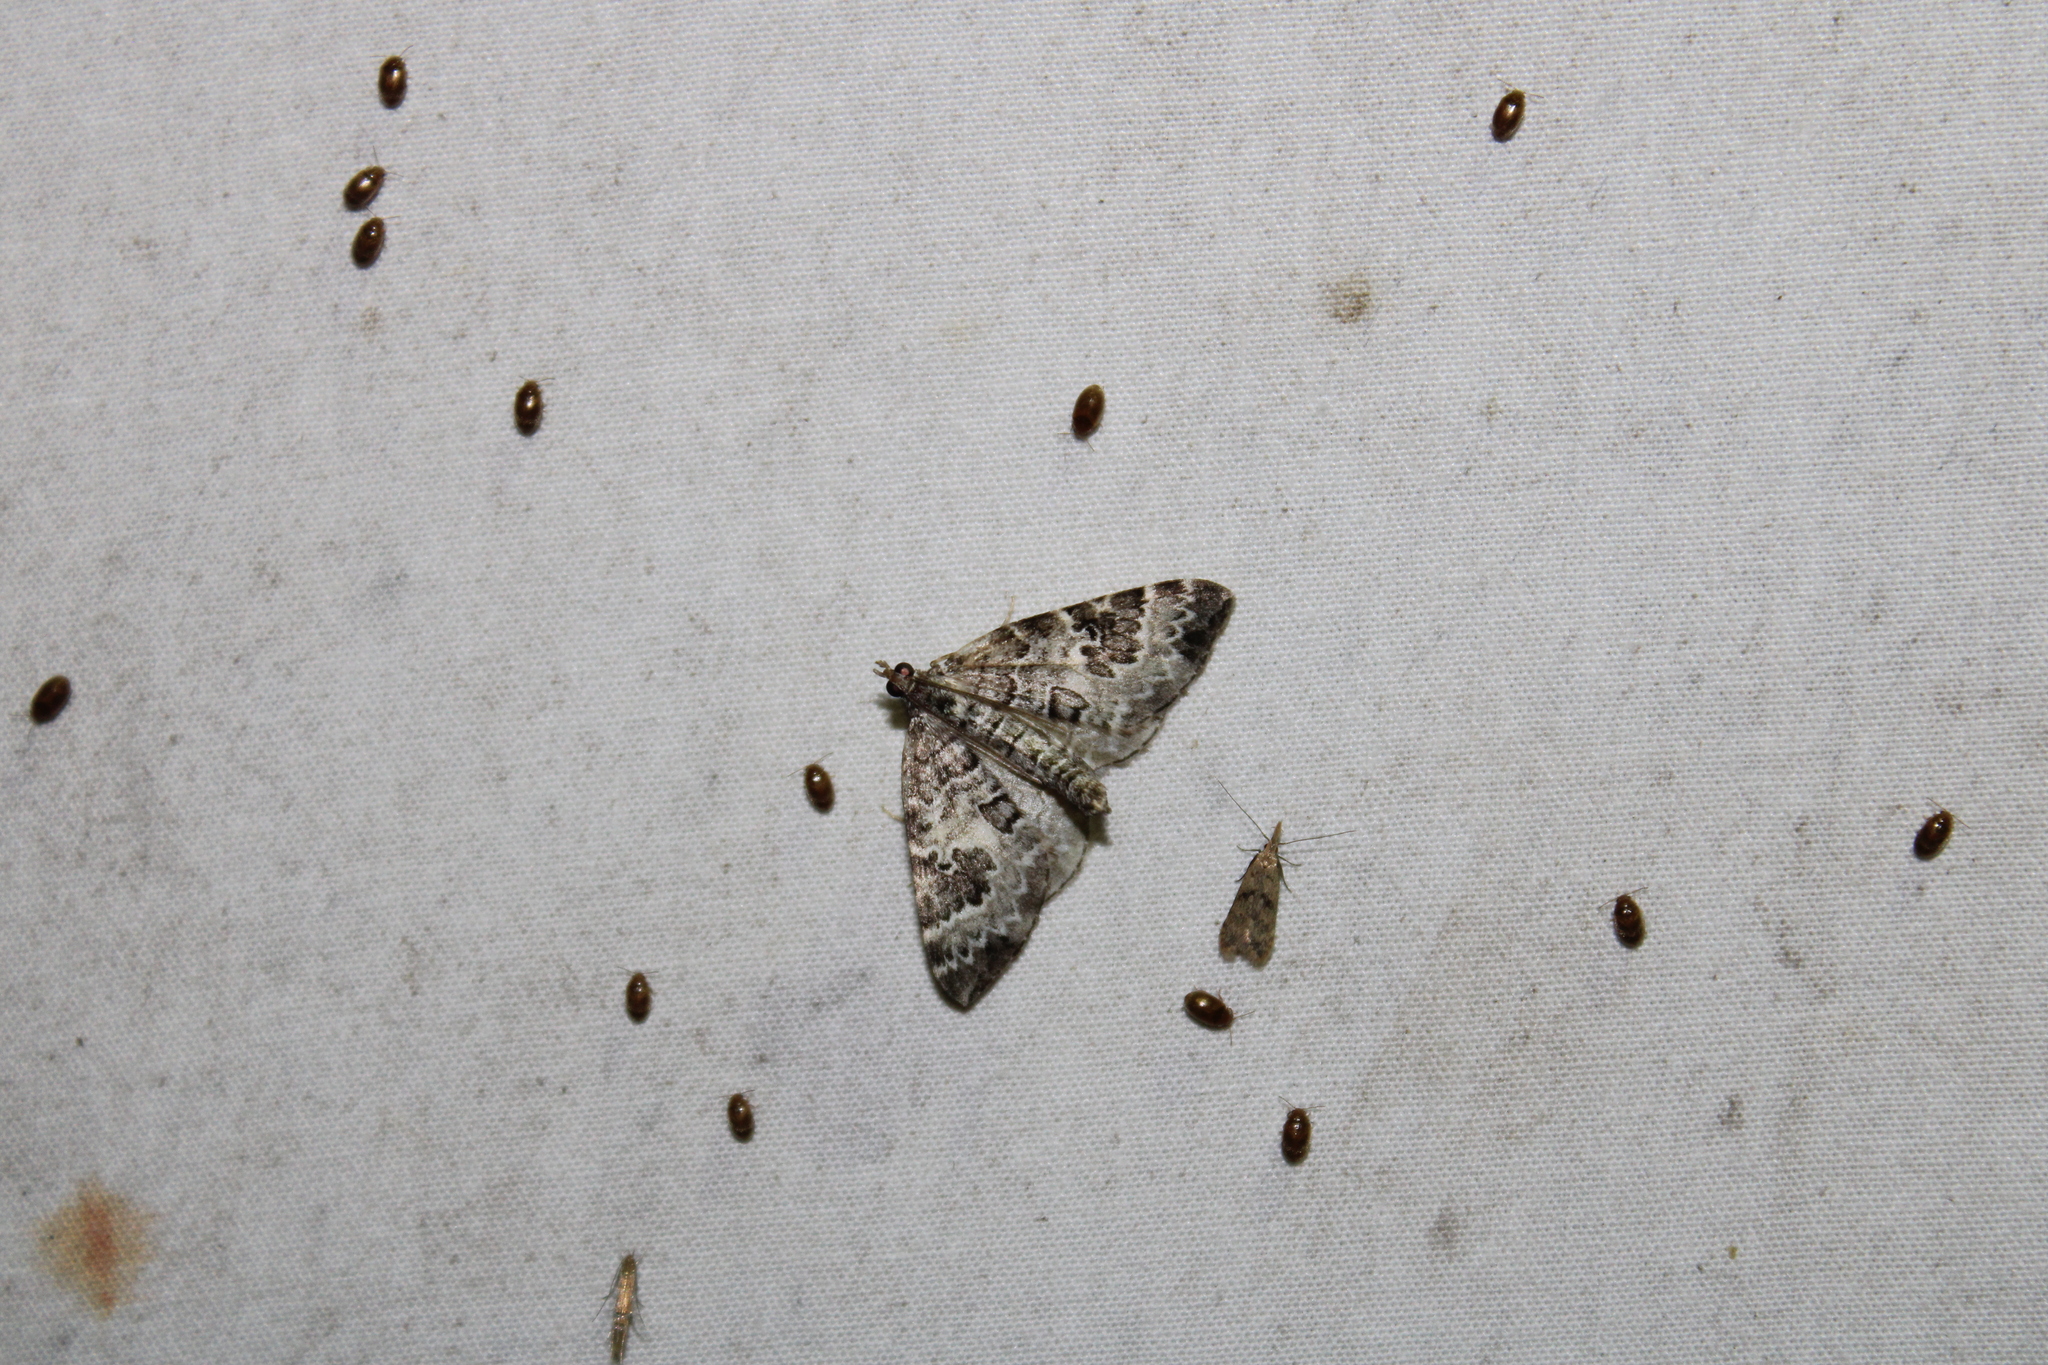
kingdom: Animalia
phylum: Arthropoda
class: Insecta
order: Lepidoptera
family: Geometridae
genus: Eulithis
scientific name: Eulithis explanata
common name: White eulithis
